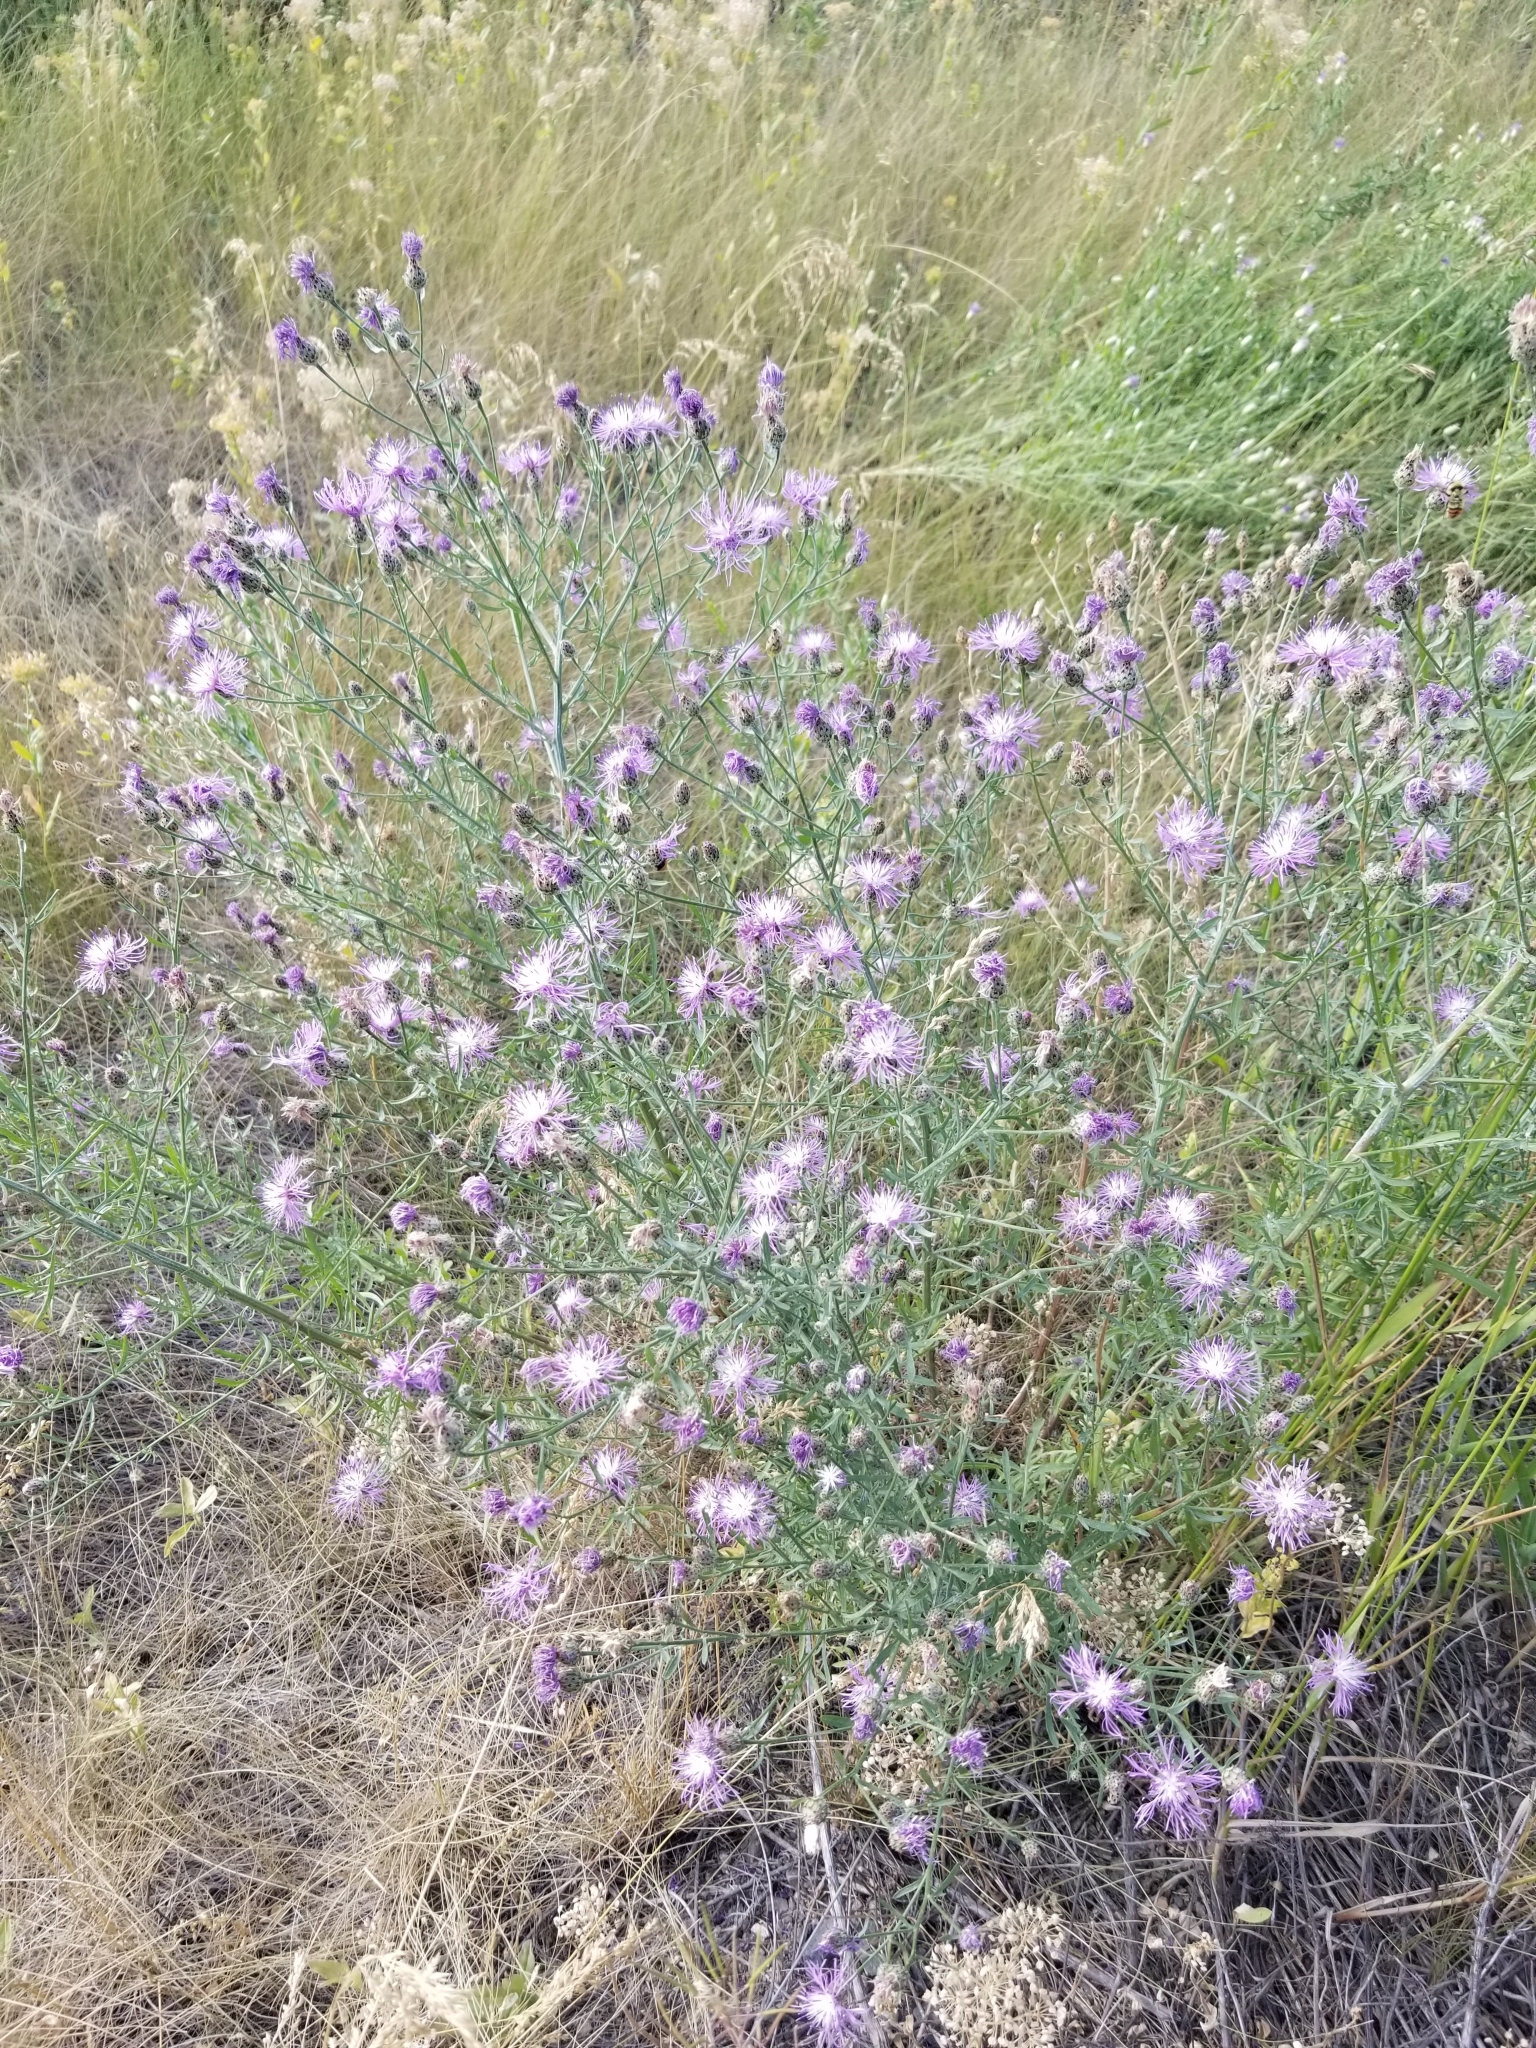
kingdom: Plantae
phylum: Tracheophyta
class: Magnoliopsida
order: Asterales
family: Asteraceae
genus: Centaurea
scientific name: Centaurea stoebe
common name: Spotted knapweed
